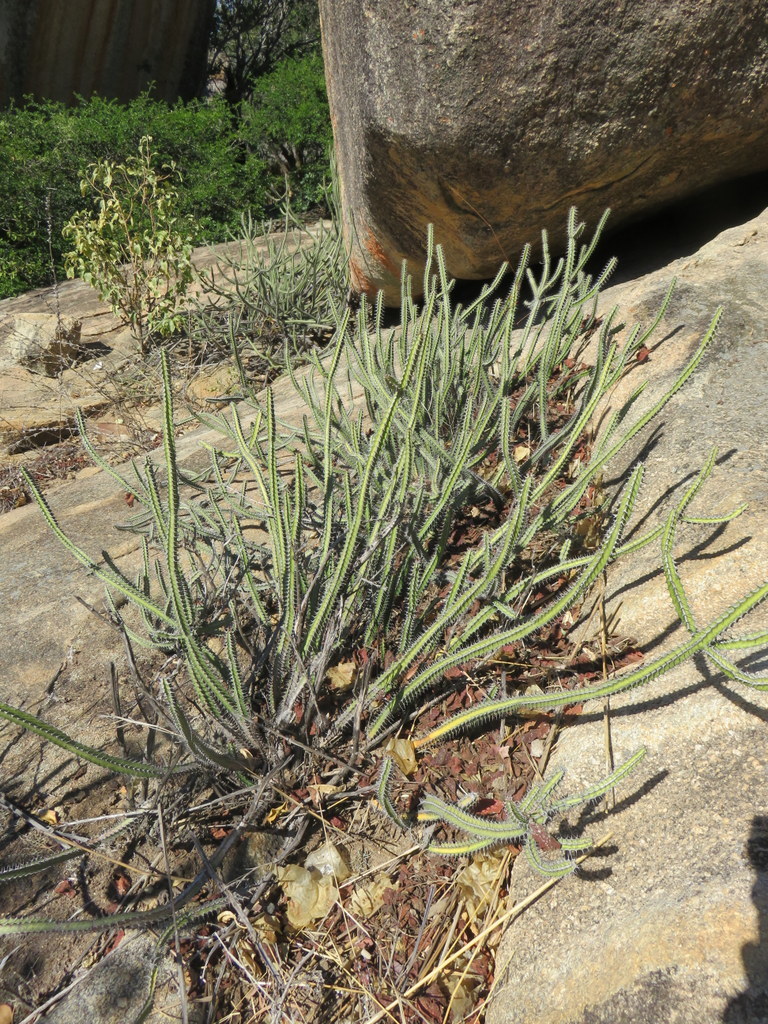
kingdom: Plantae
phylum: Tracheophyta
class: Magnoliopsida
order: Malpighiales
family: Euphorbiaceae
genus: Euphorbia
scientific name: Euphorbia malevola
